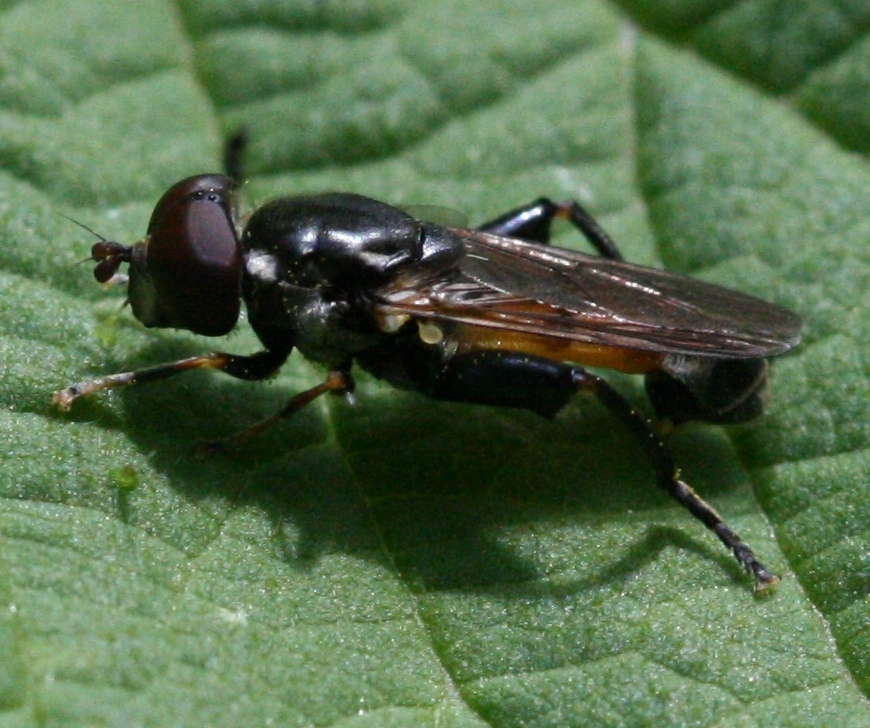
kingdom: Animalia
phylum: Arthropoda
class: Insecta
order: Diptera
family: Syrphidae
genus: Tropidia
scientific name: Tropidia scita
